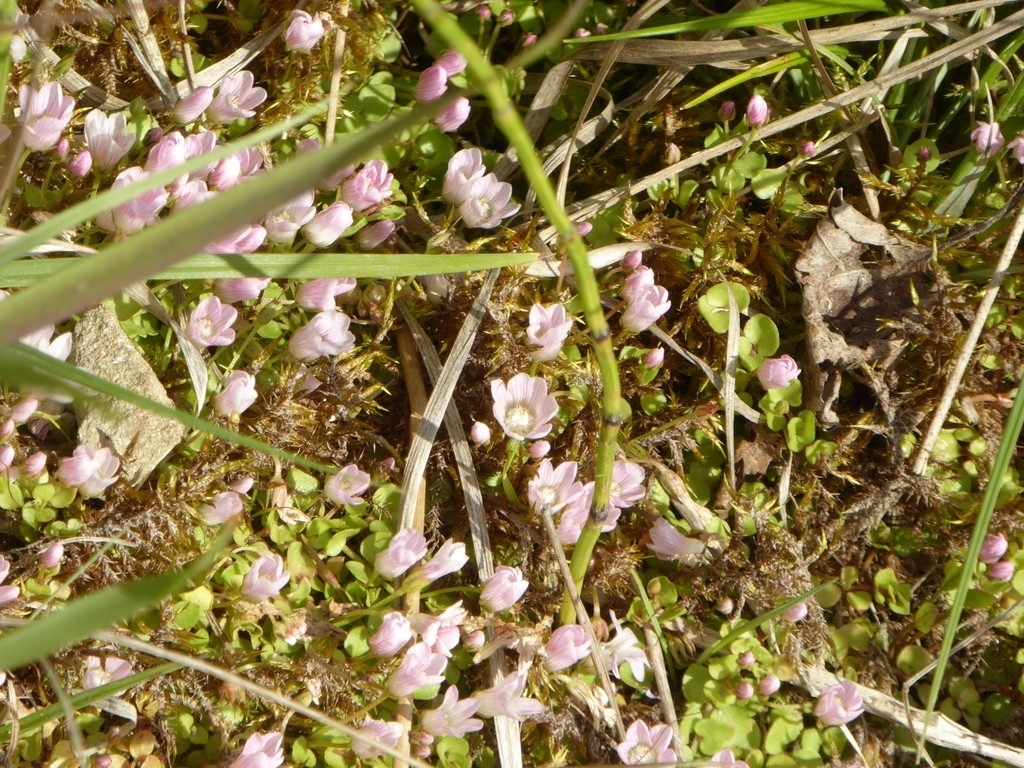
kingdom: Plantae
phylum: Tracheophyta
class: Magnoliopsida
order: Ericales
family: Primulaceae
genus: Lysimachia
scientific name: Lysimachia tenella
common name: European bog pimpernel
